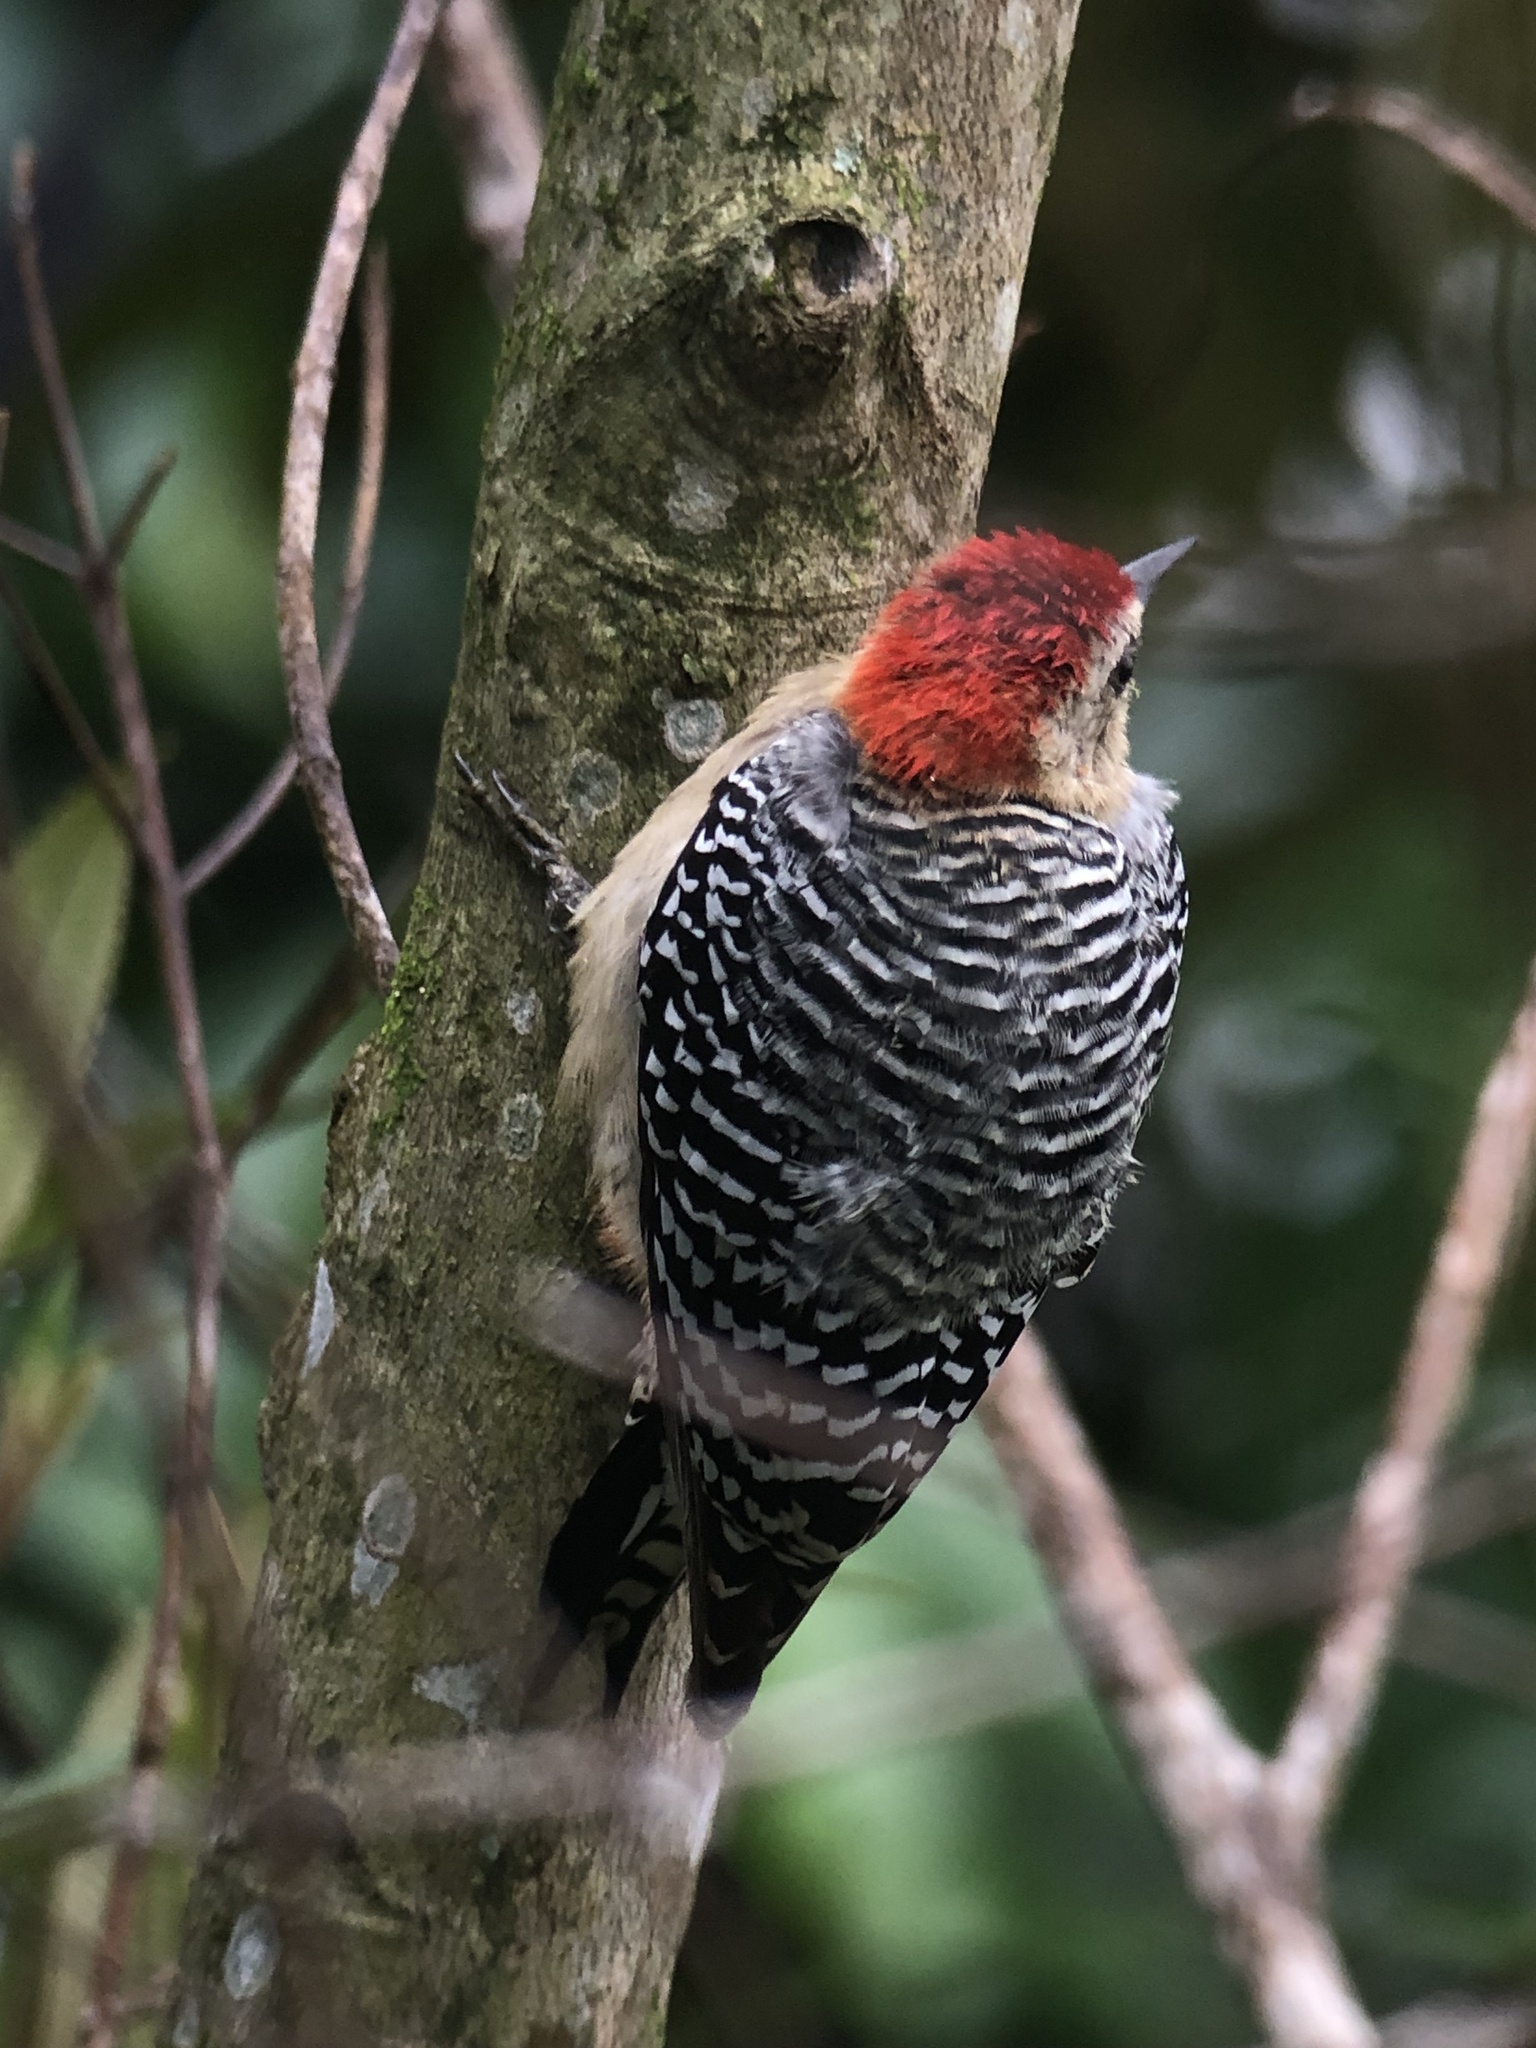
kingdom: Animalia
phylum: Chordata
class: Aves
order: Piciformes
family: Picidae
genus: Melanerpes
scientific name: Melanerpes rubricapillus
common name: Red-crowned woodpecker
